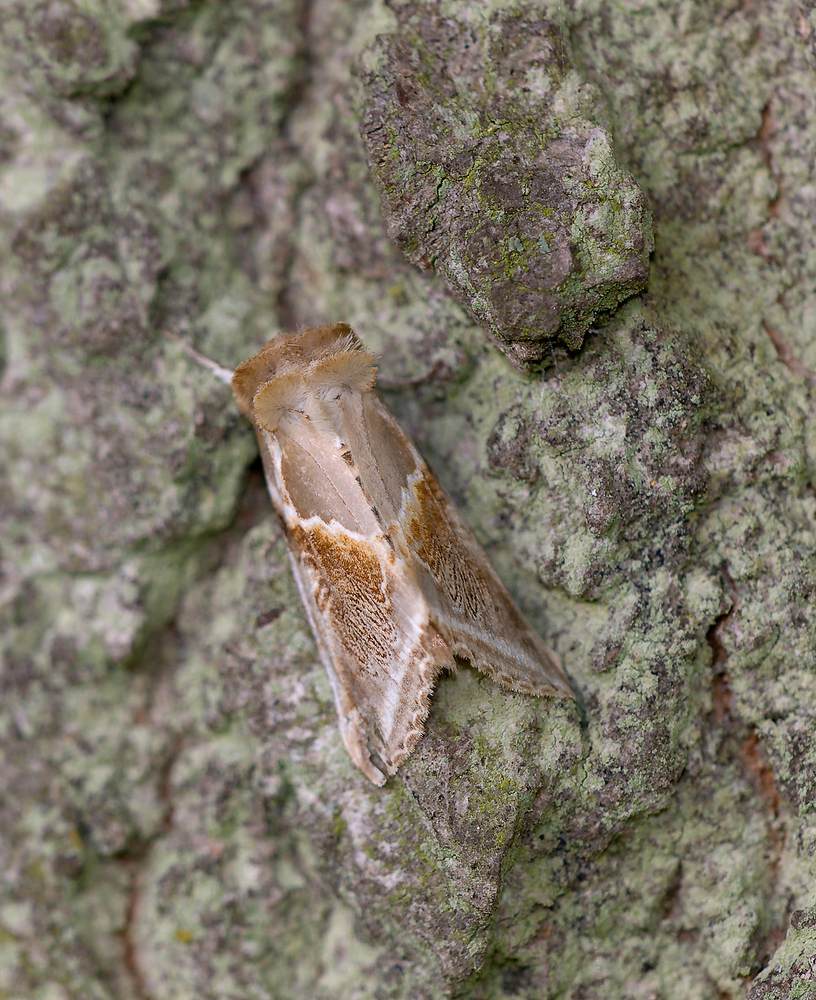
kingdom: Animalia
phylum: Arthropoda
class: Insecta
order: Lepidoptera
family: Drepanidae
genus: Habrosyne
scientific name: Habrosyne pyritoides
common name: Buff arches
